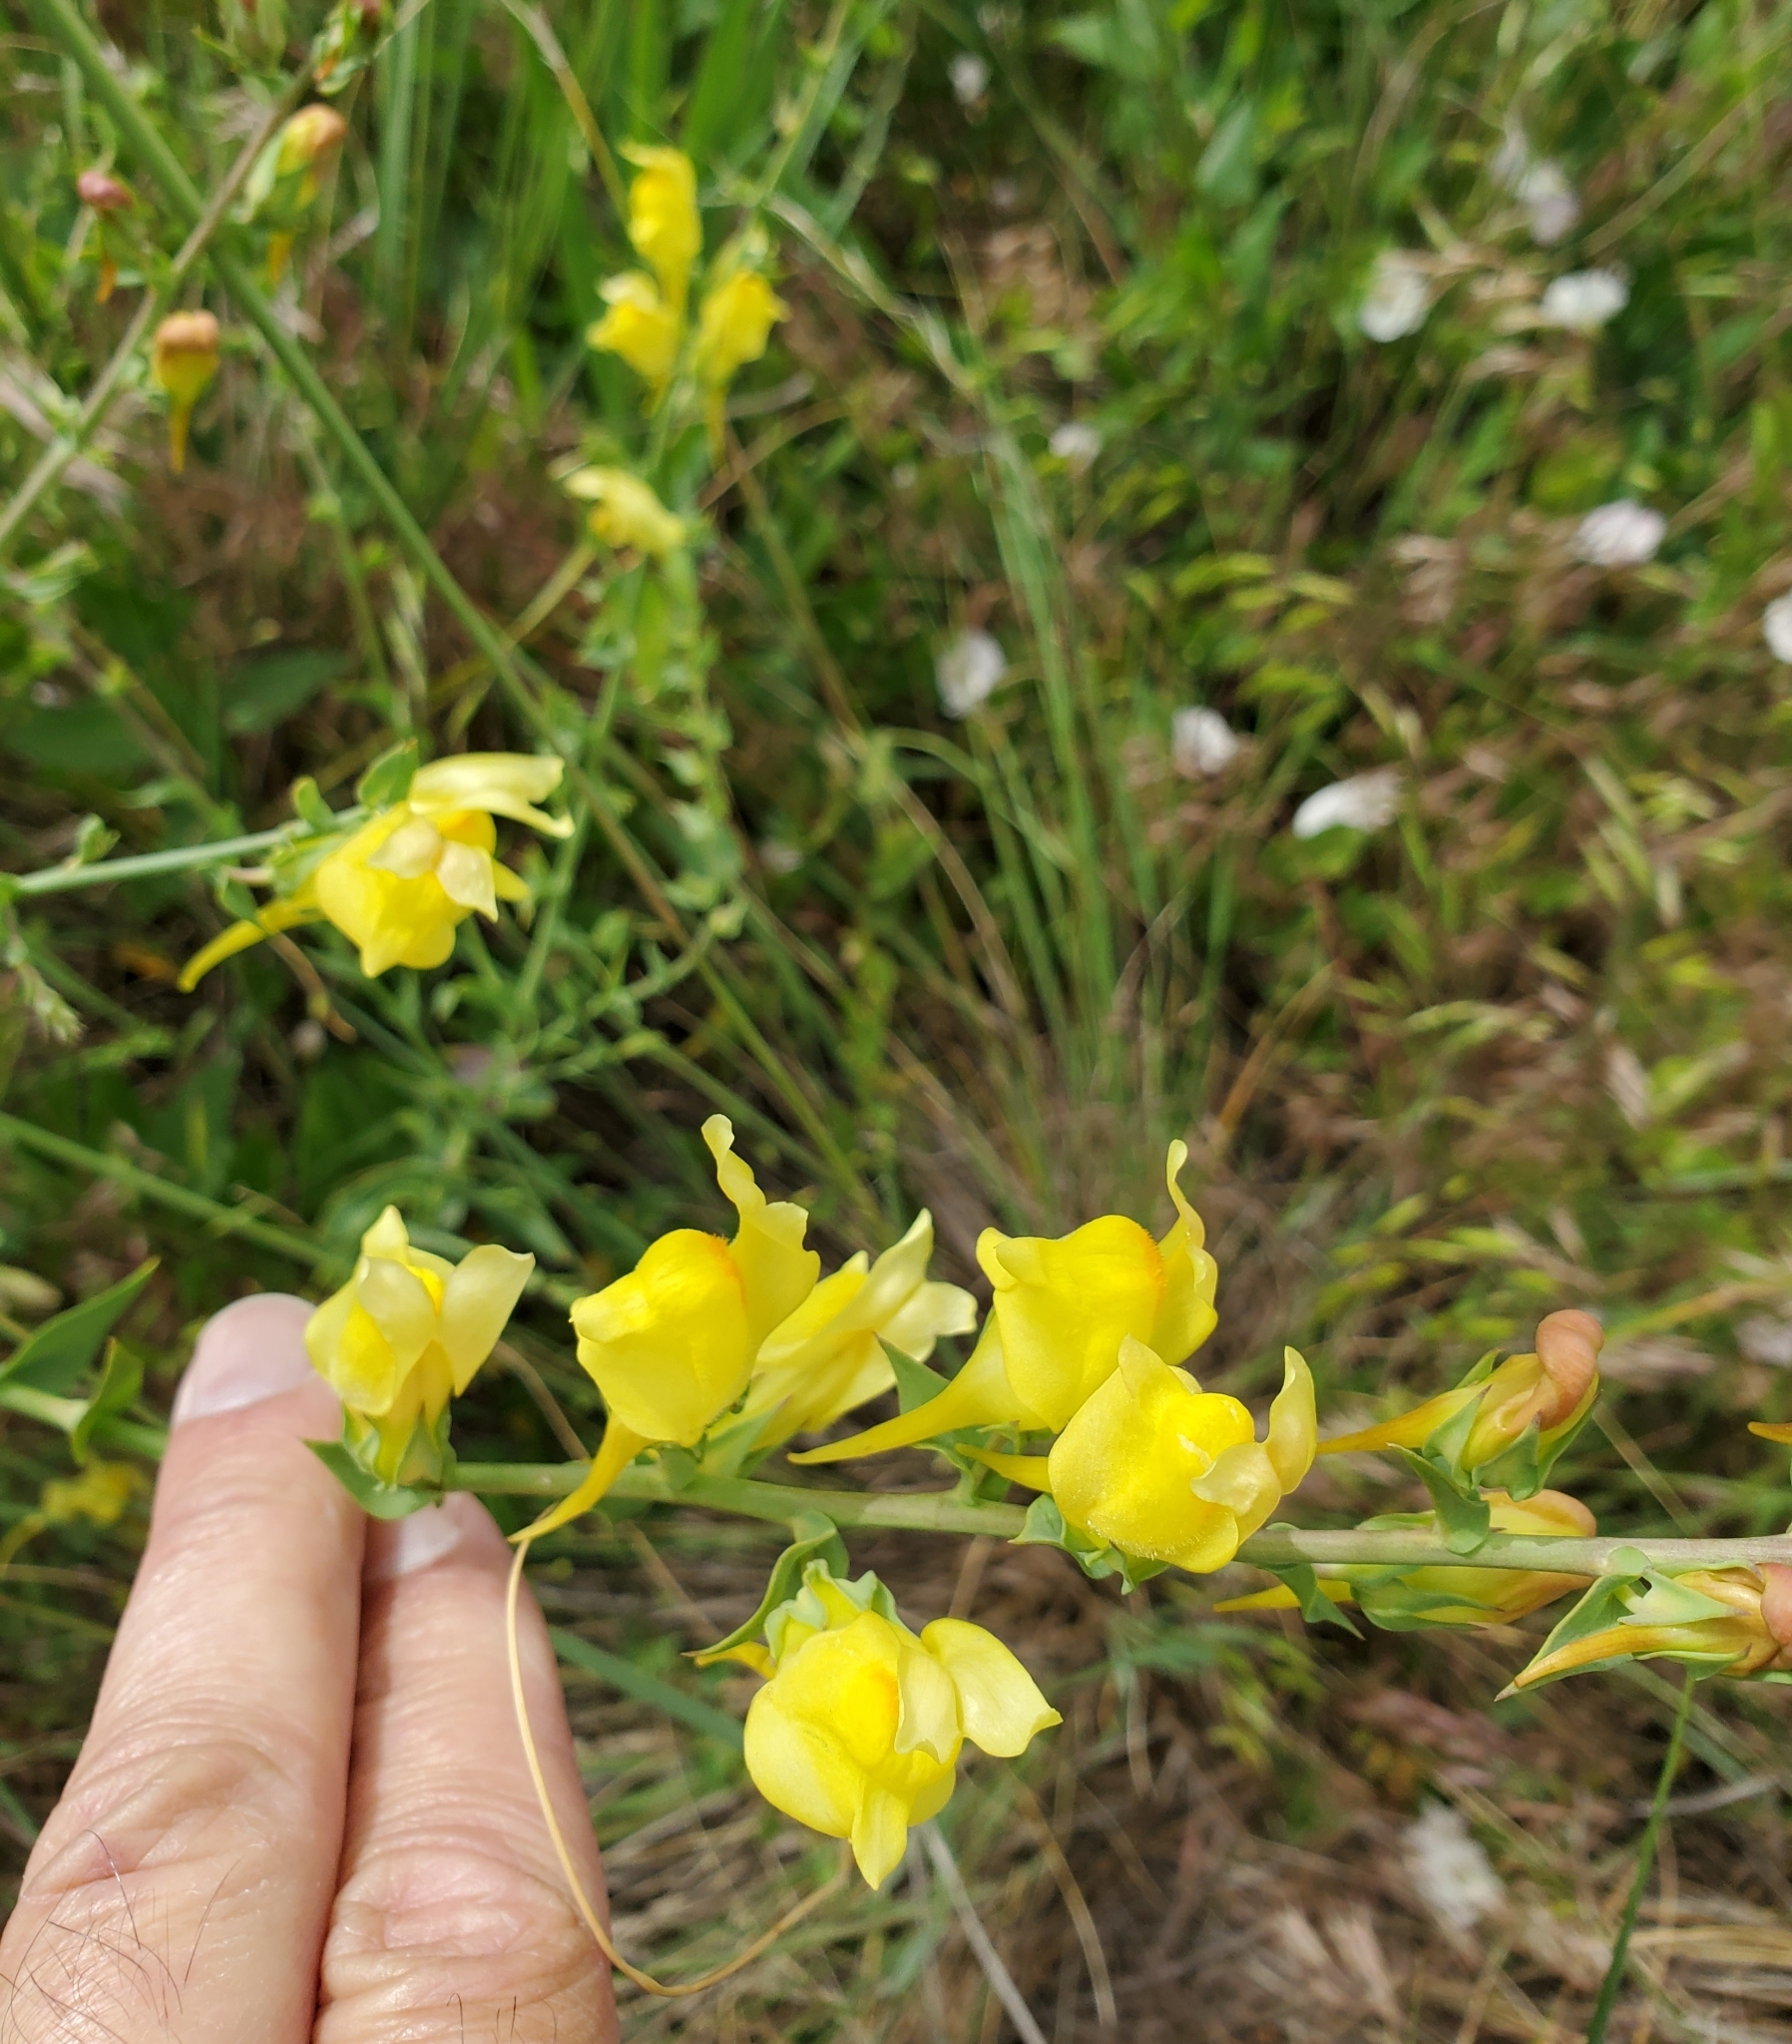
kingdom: Plantae
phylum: Tracheophyta
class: Magnoliopsida
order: Lamiales
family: Plantaginaceae
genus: Linaria
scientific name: Linaria dalmatica
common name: Dalmatian toadflax
